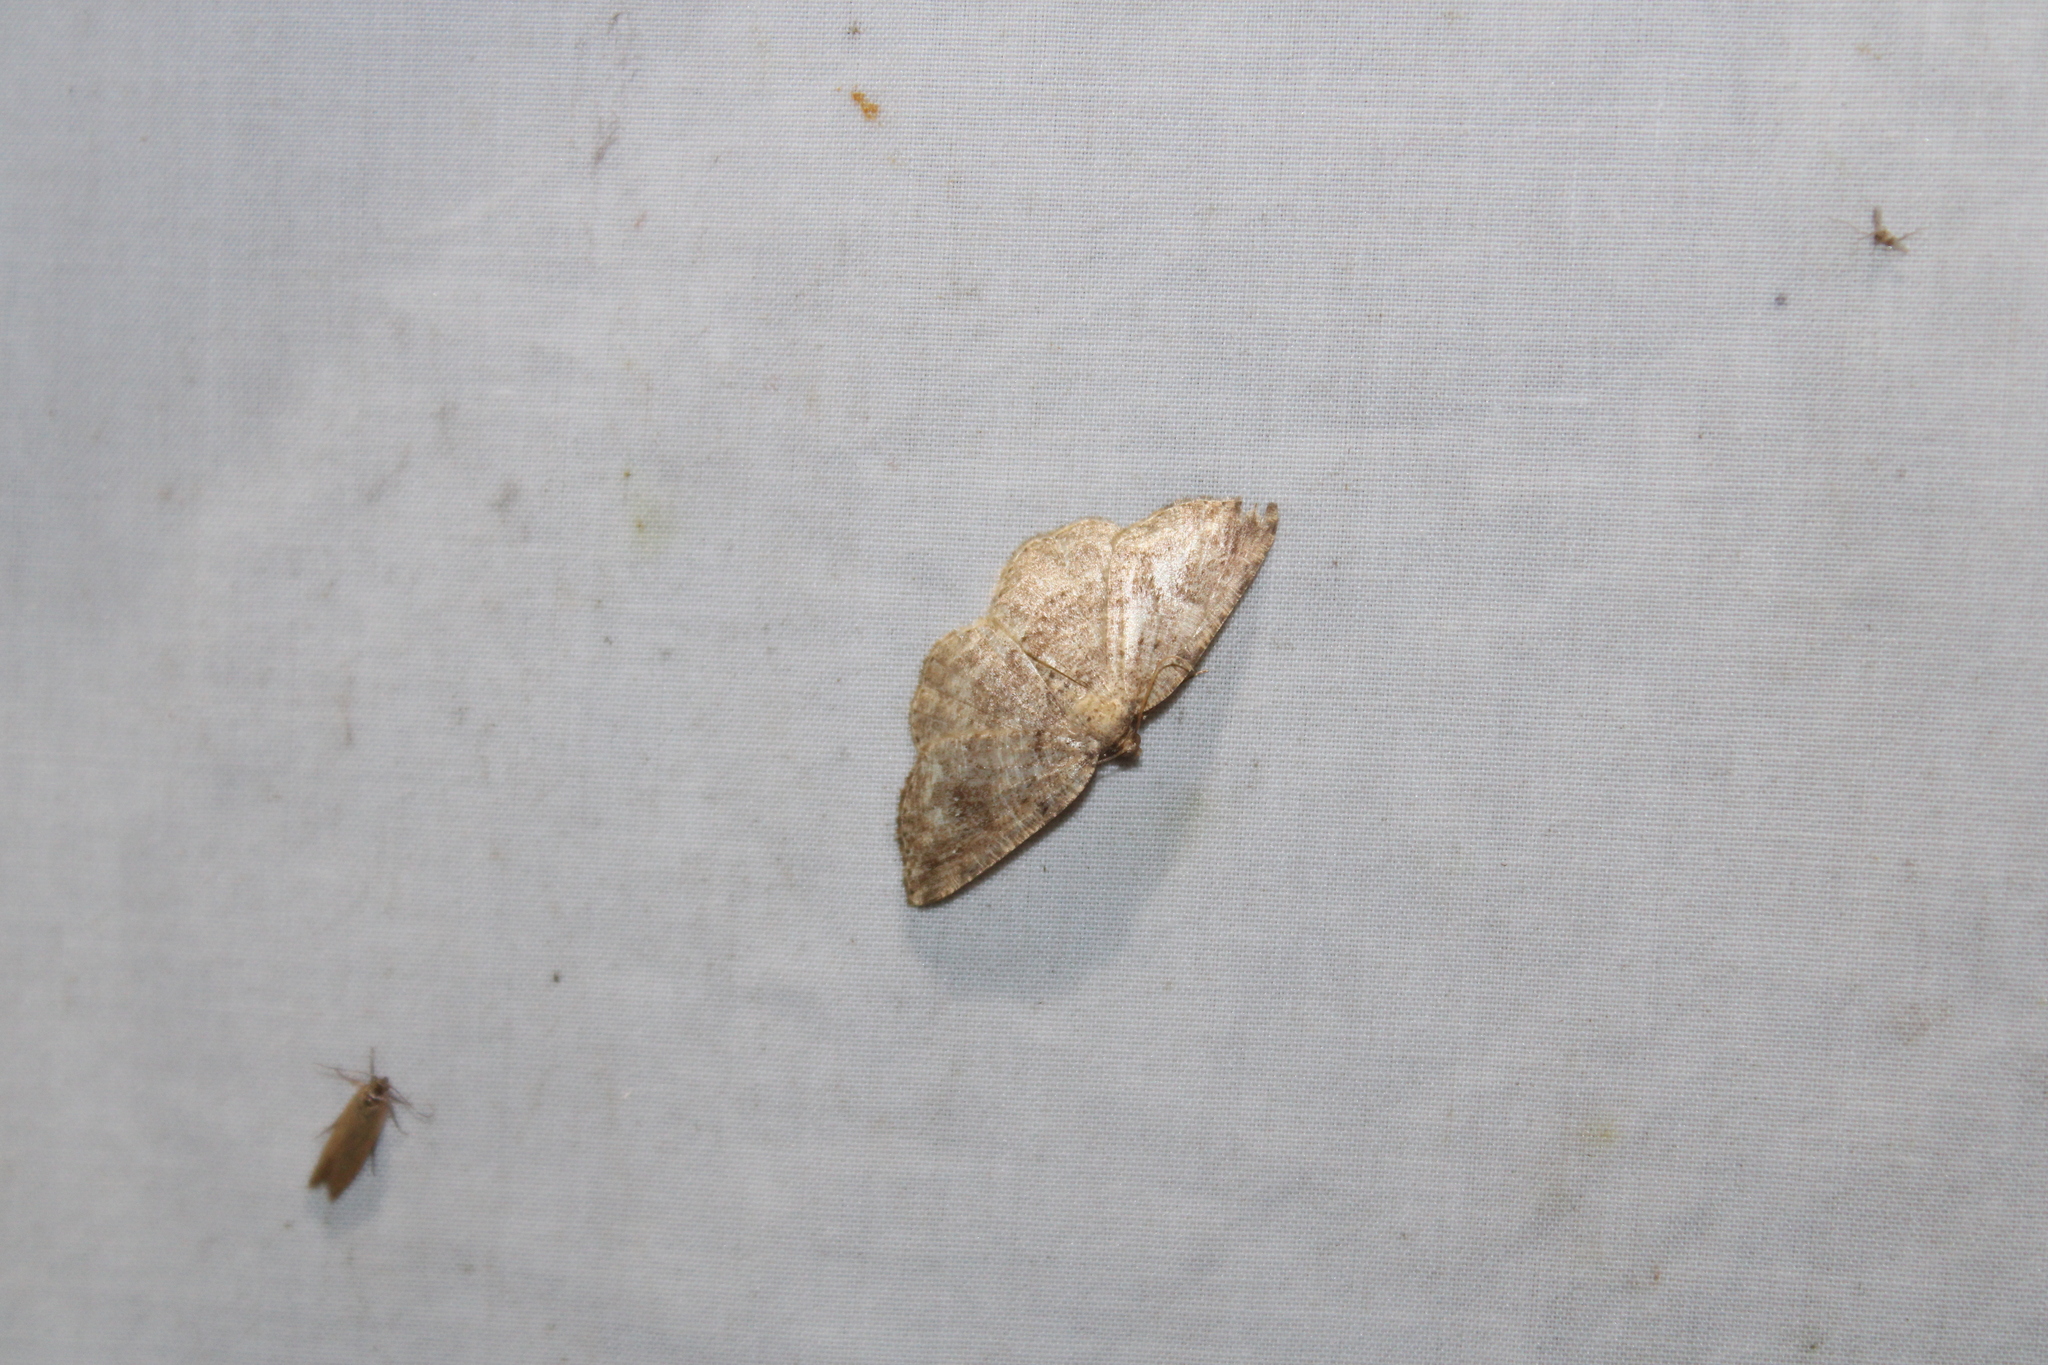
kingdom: Animalia
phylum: Arthropoda
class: Insecta
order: Lepidoptera
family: Geometridae
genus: Homochlodes
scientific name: Homochlodes fritillaria
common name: Pale homochlodes
